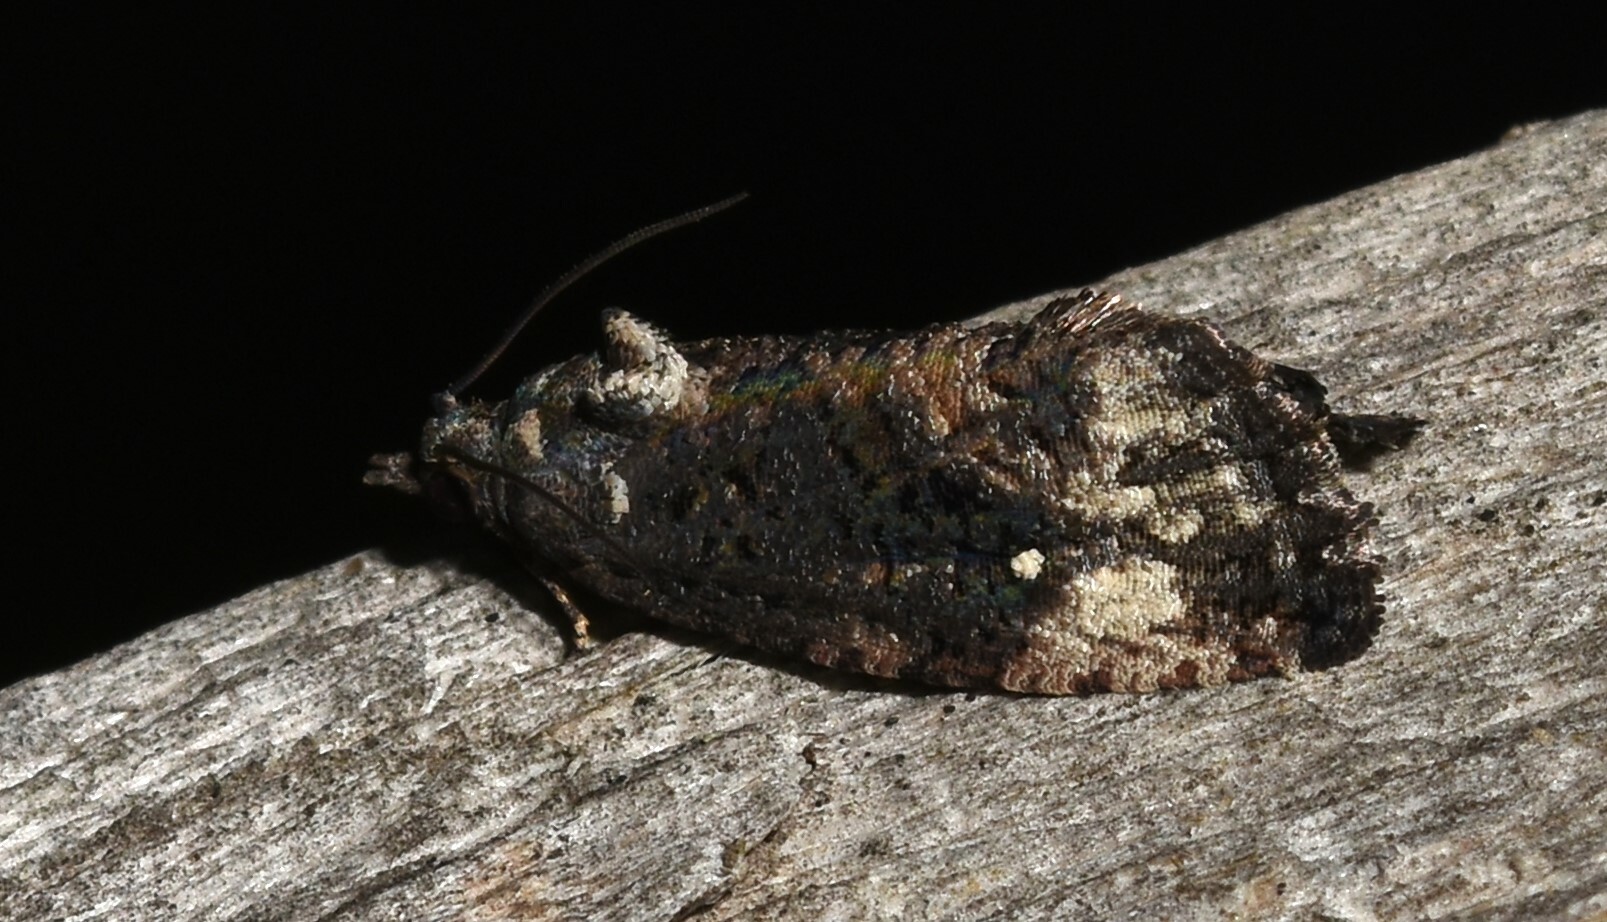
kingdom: Animalia
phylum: Arthropoda
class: Insecta
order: Lepidoptera
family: Tortricidae
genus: Gymnandrosoma
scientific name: Gymnandrosoma punctidiscanum
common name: Dotted ecdytolopha moth
